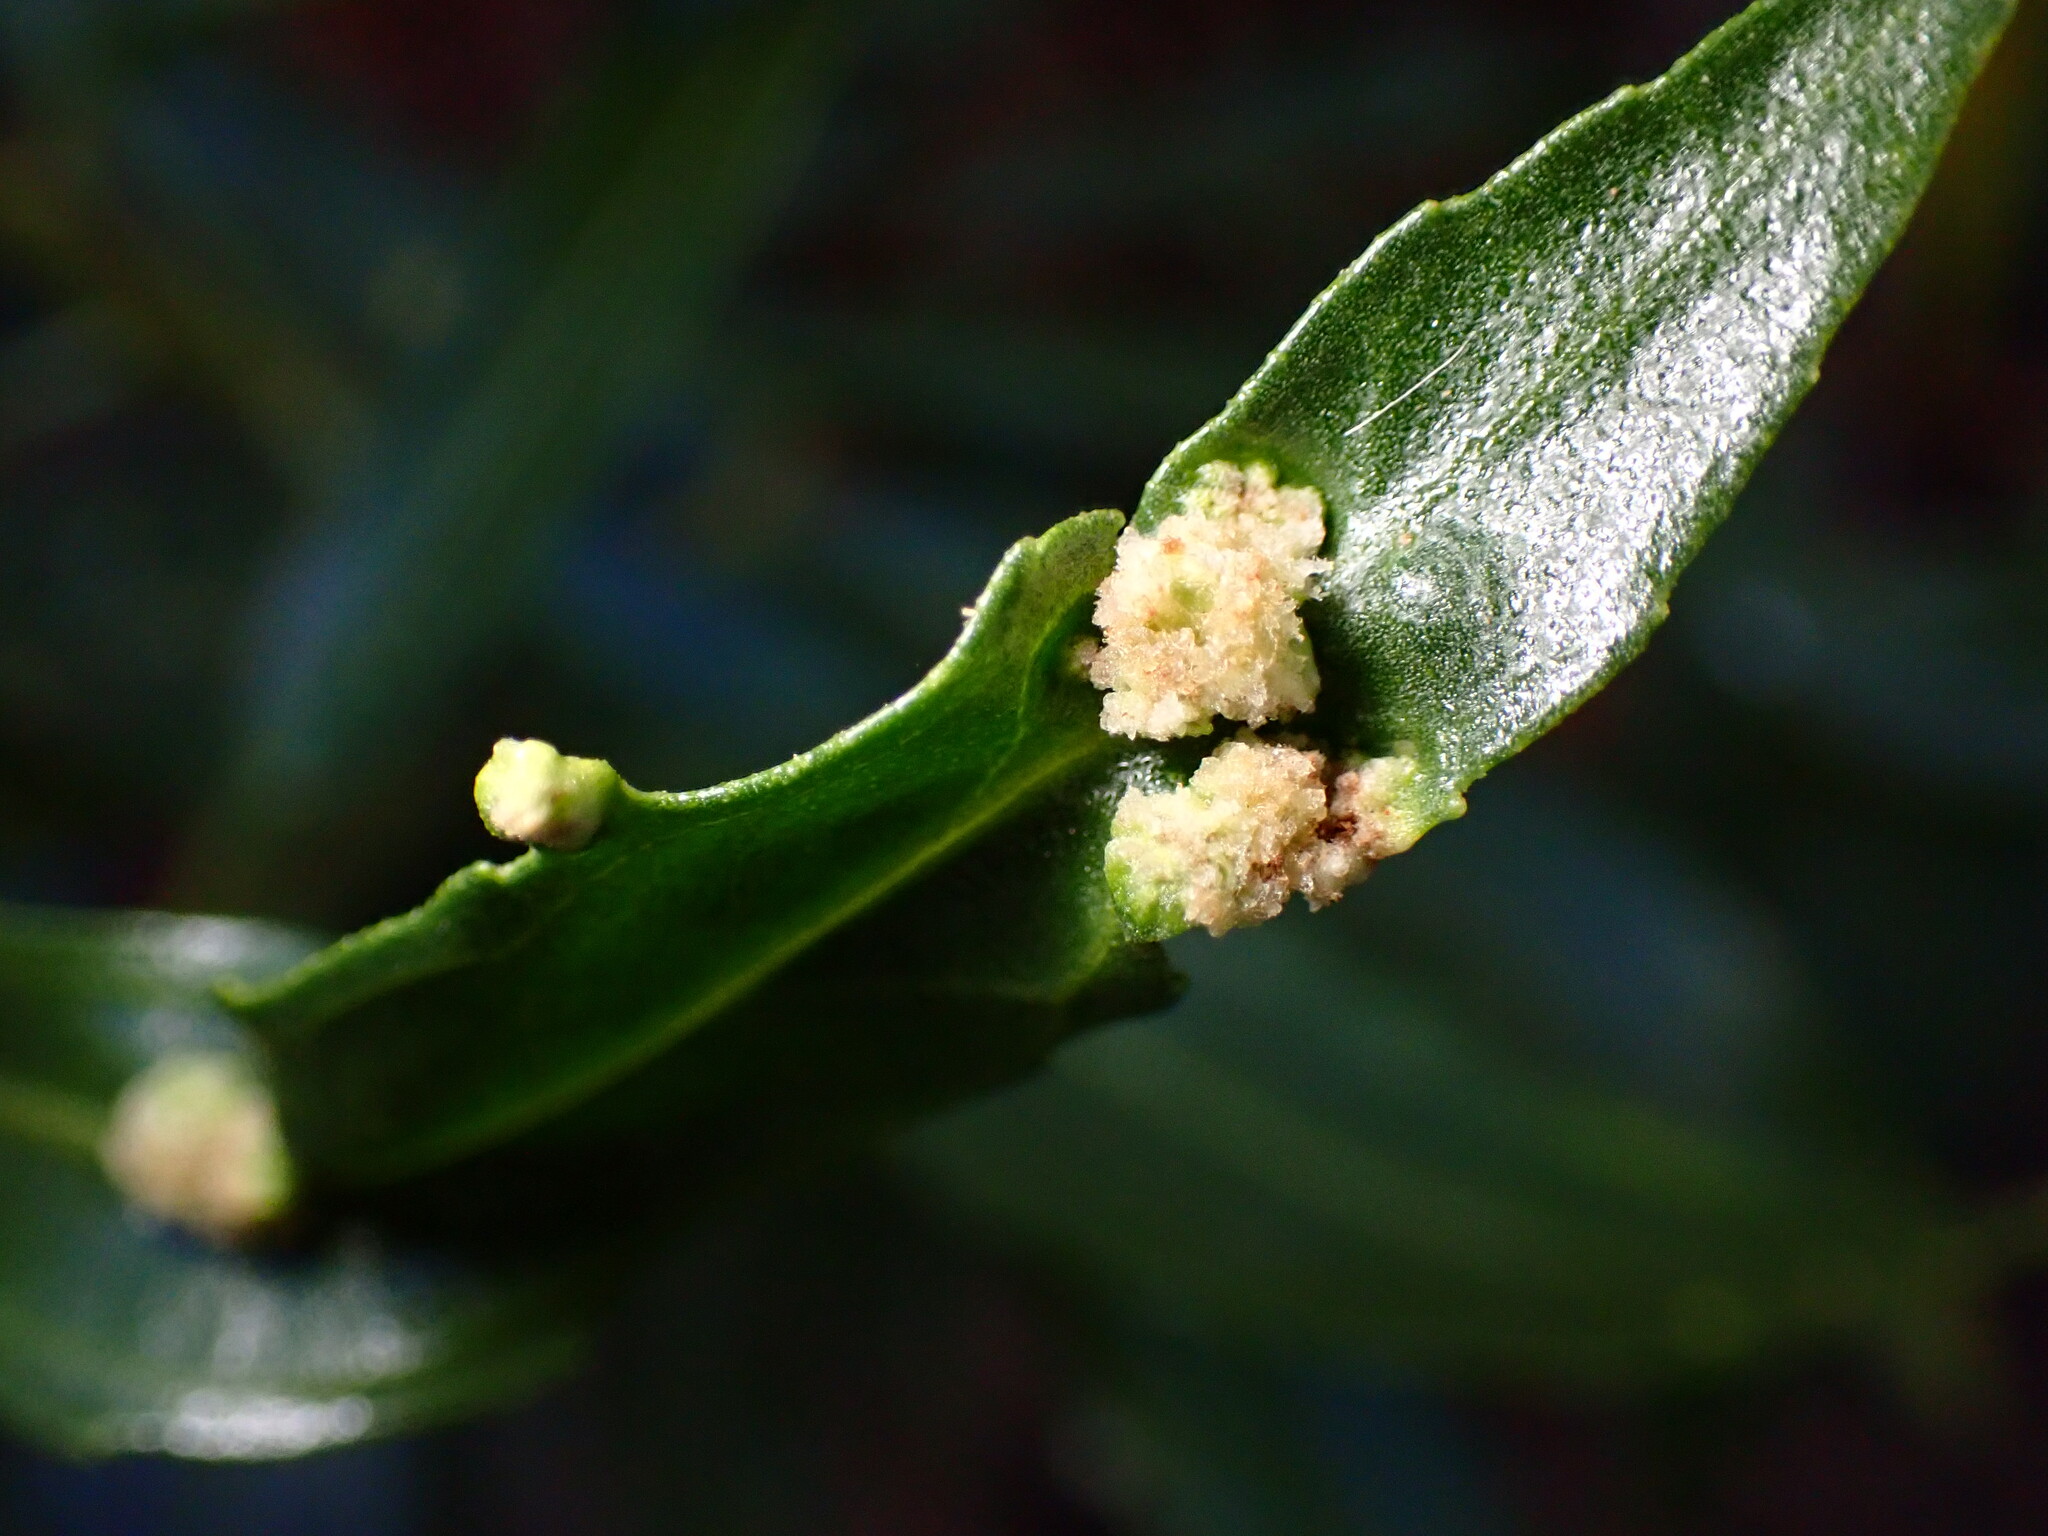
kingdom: Animalia
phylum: Arthropoda
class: Arachnida
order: Trombidiformes
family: Eriophyidae
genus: Aceria
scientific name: Aceria
